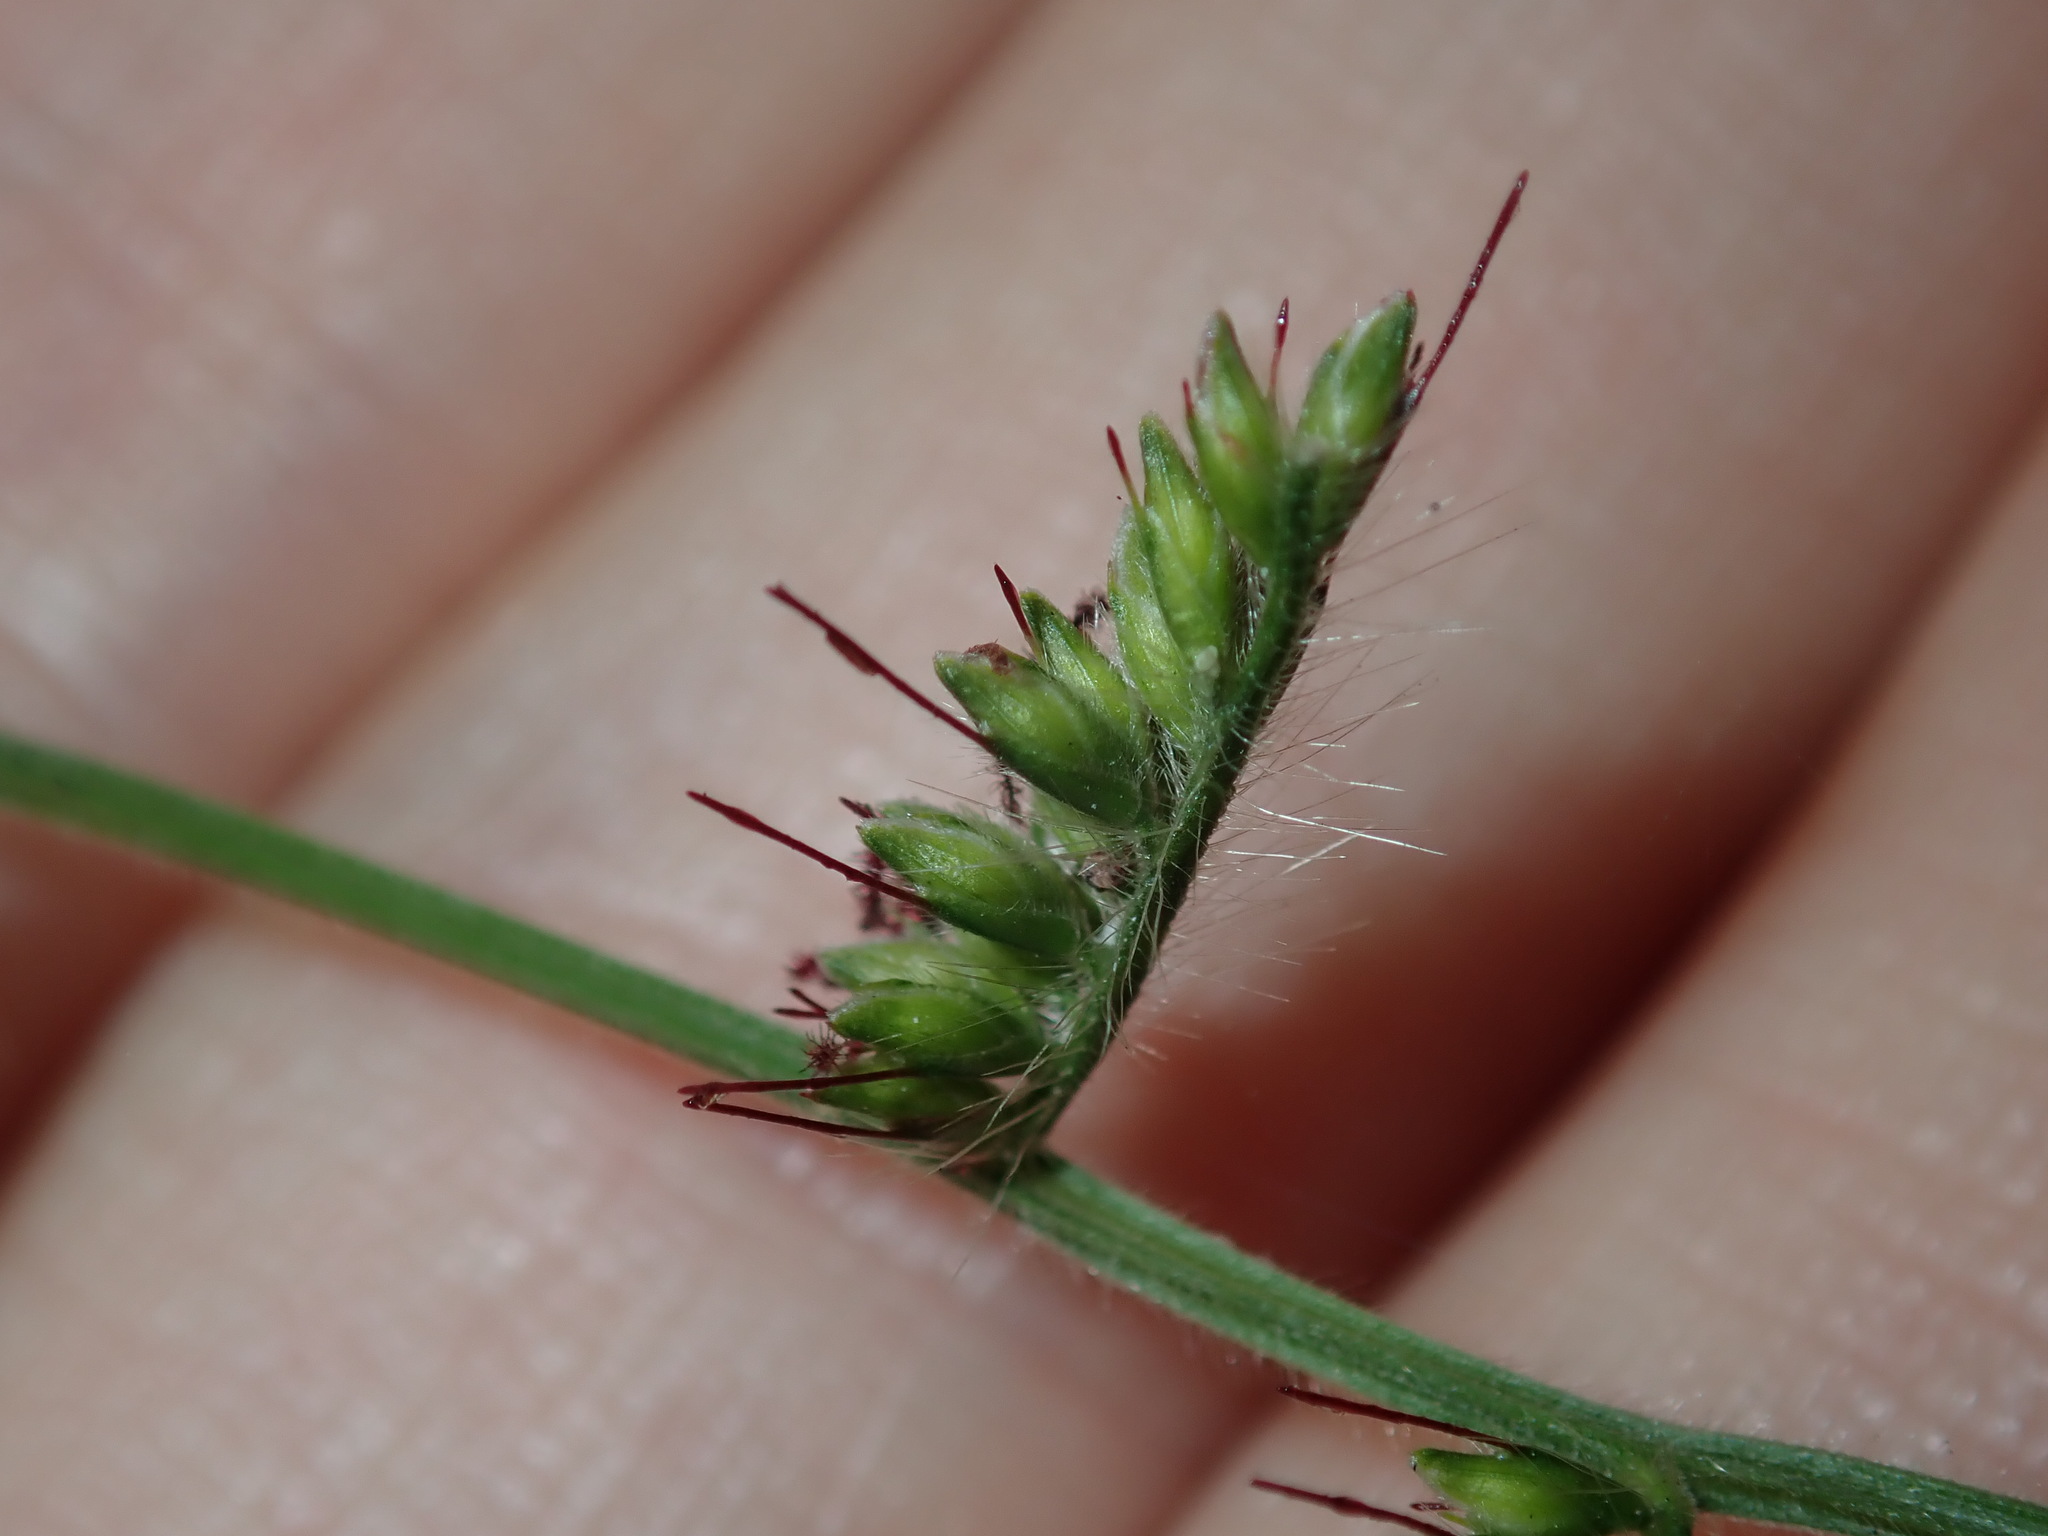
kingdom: Plantae
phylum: Tracheophyta
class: Liliopsida
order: Poales
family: Poaceae
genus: Oplismenus
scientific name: Oplismenus hirtellus
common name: Basketgrass
